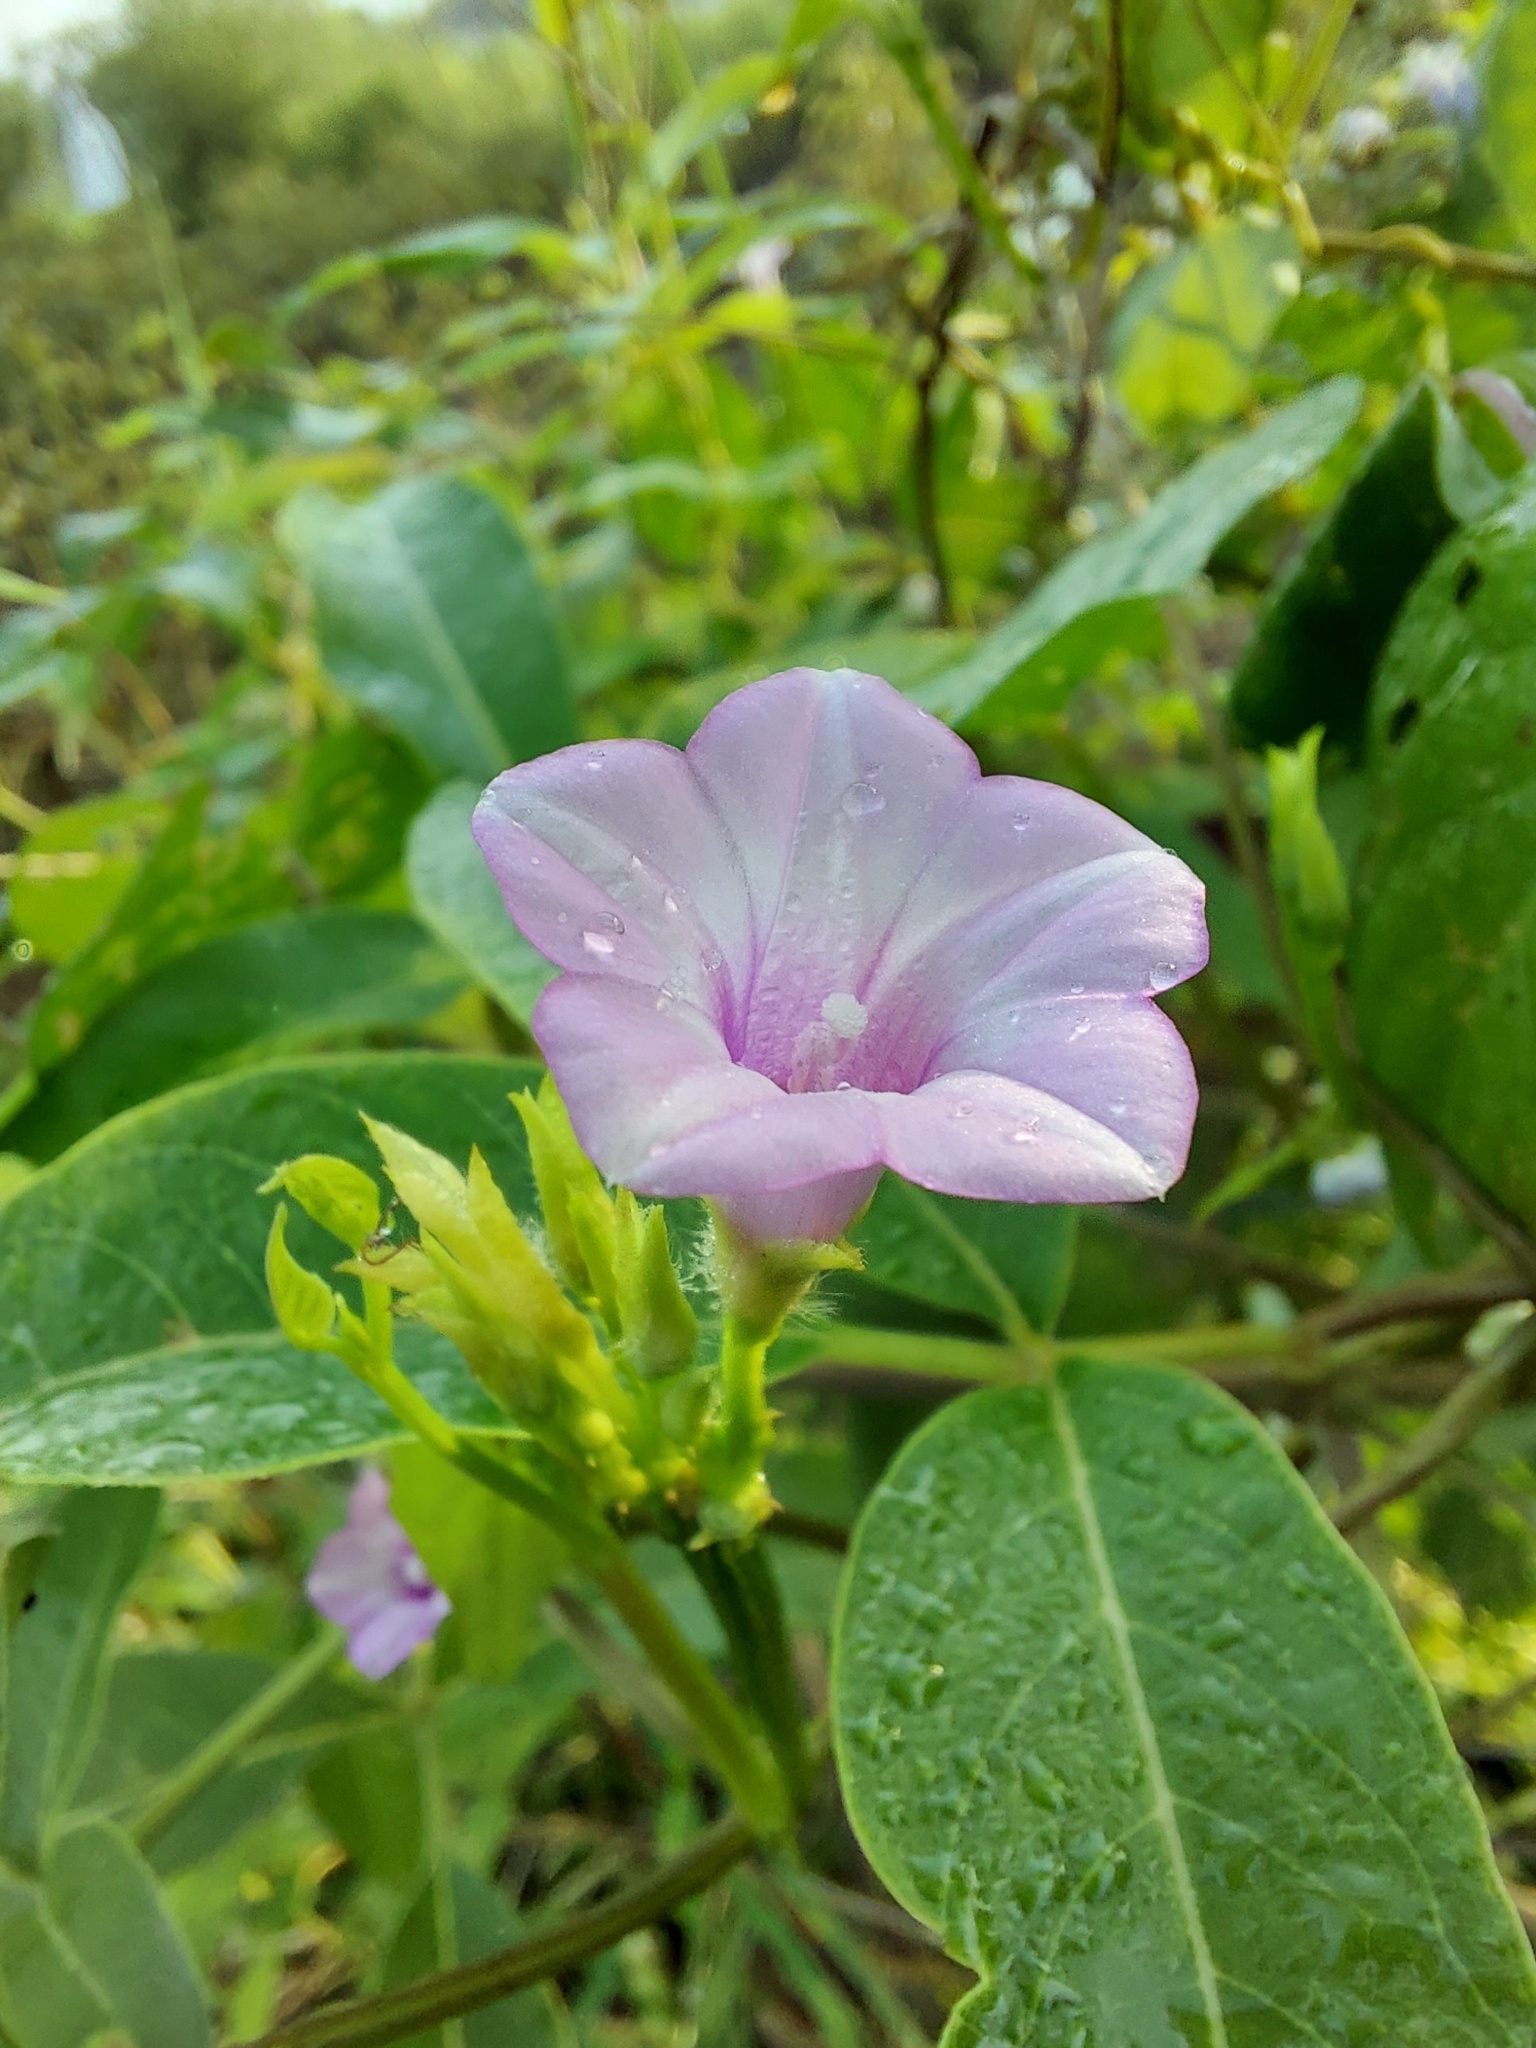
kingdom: Plantae
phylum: Tracheophyta
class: Magnoliopsida
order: Solanales
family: Convolvulaceae
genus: Ipomoea
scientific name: Ipomoea triloba
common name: Little-bell
